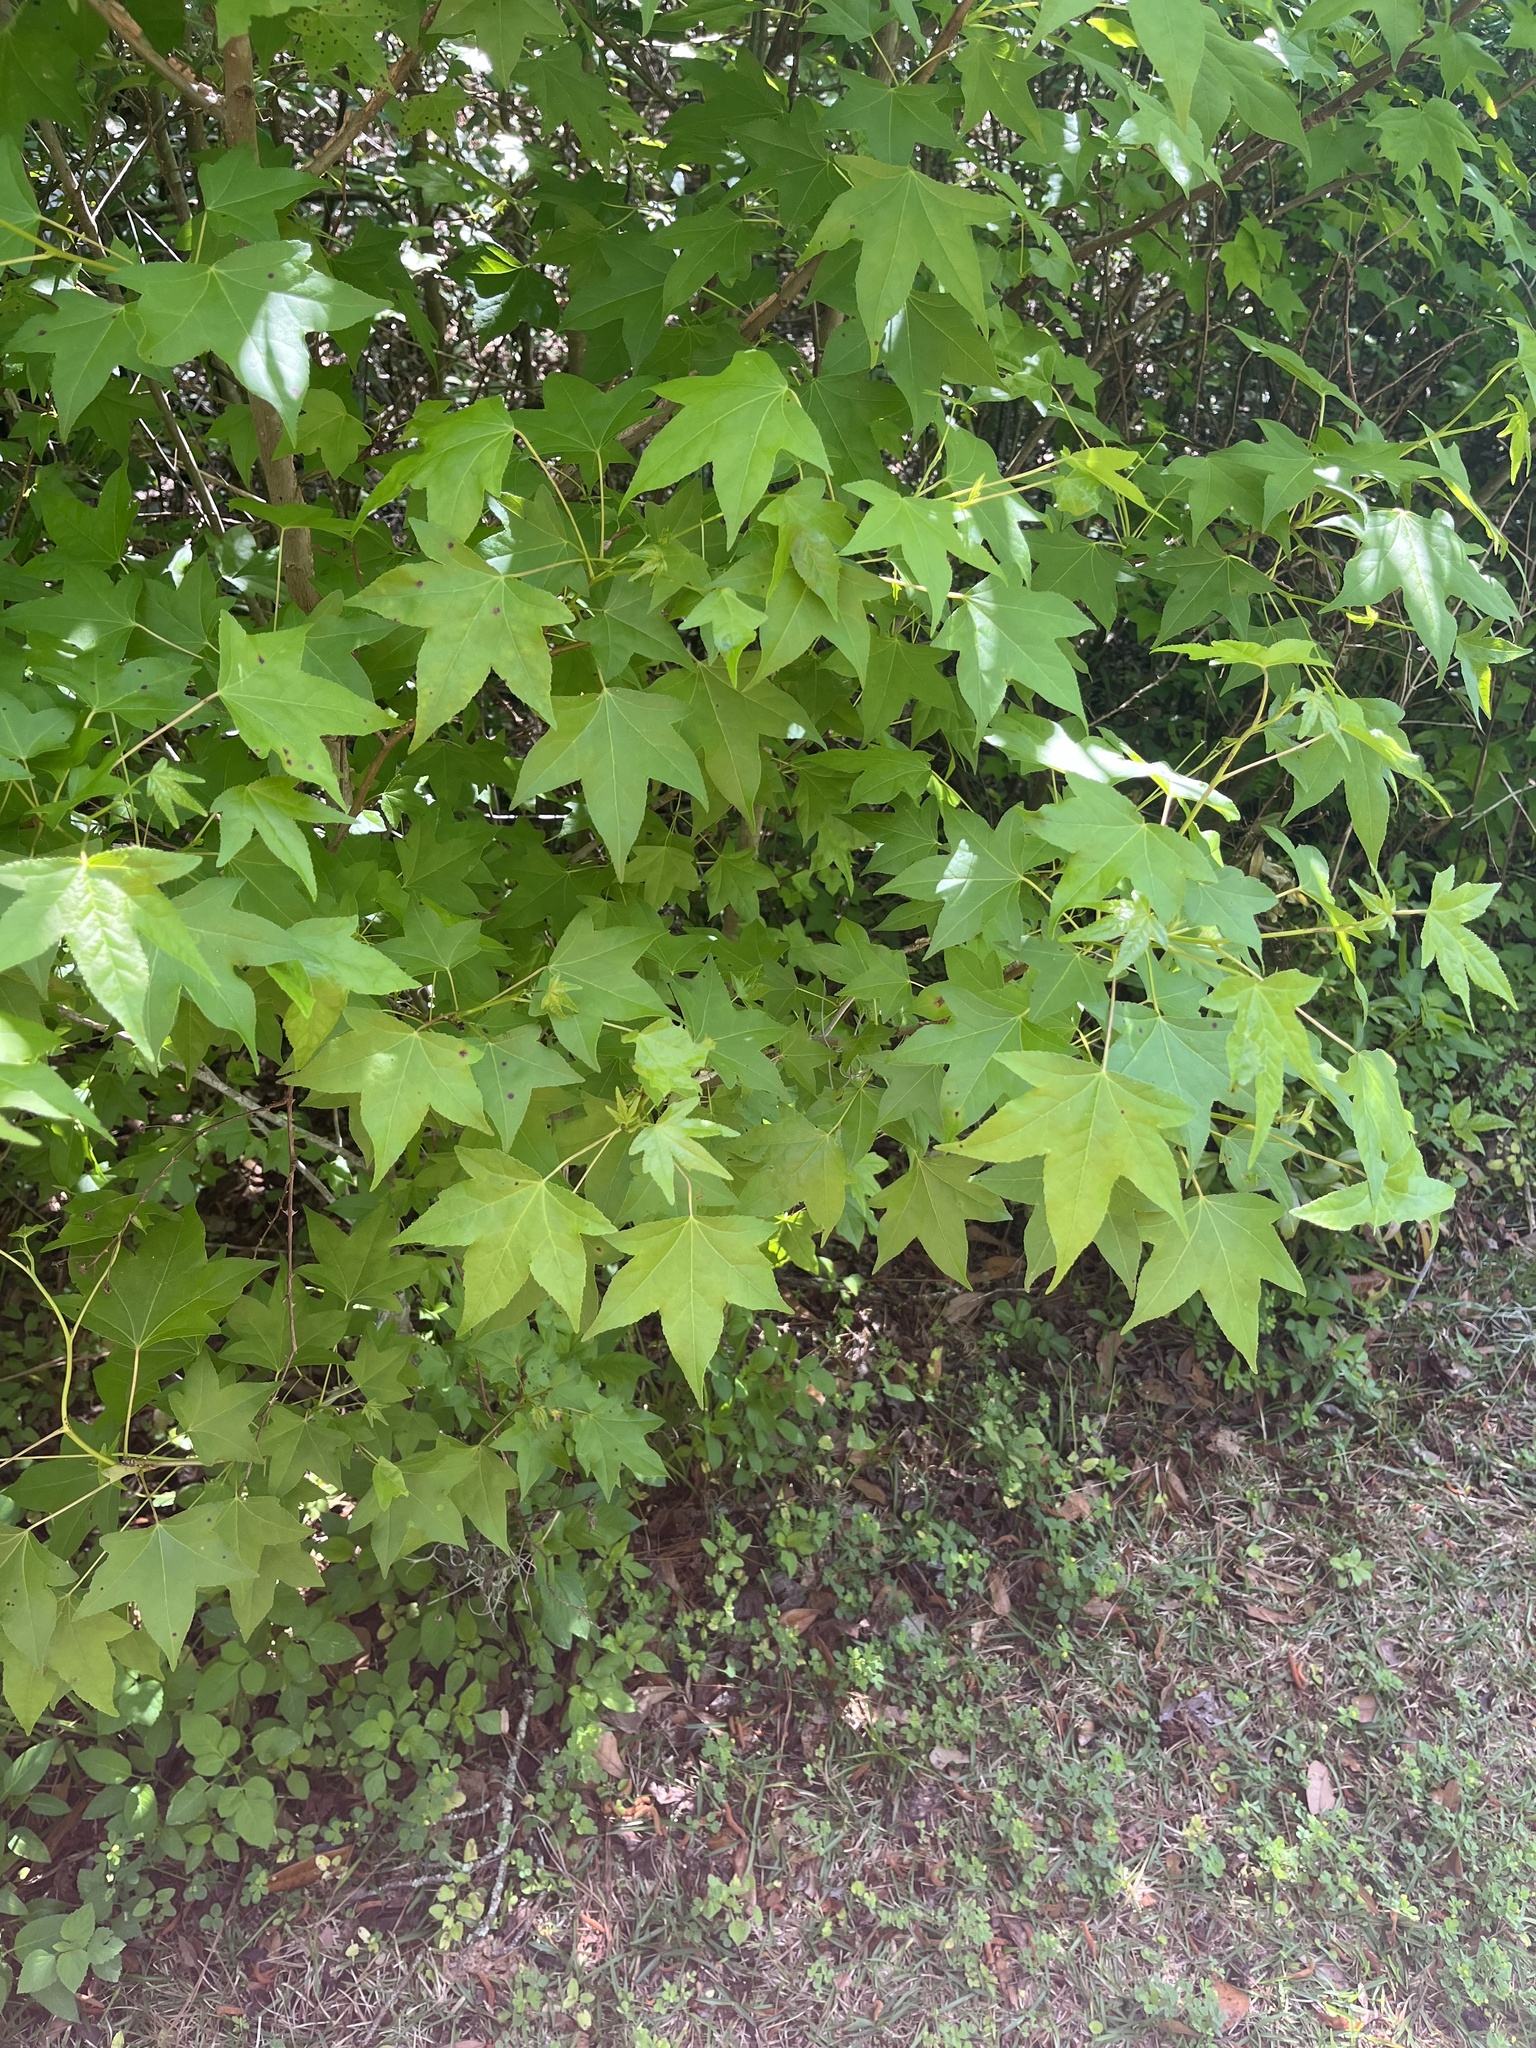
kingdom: Plantae
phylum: Tracheophyta
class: Magnoliopsida
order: Saxifragales
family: Altingiaceae
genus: Liquidambar
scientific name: Liquidambar styraciflua
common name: Sweet gum
